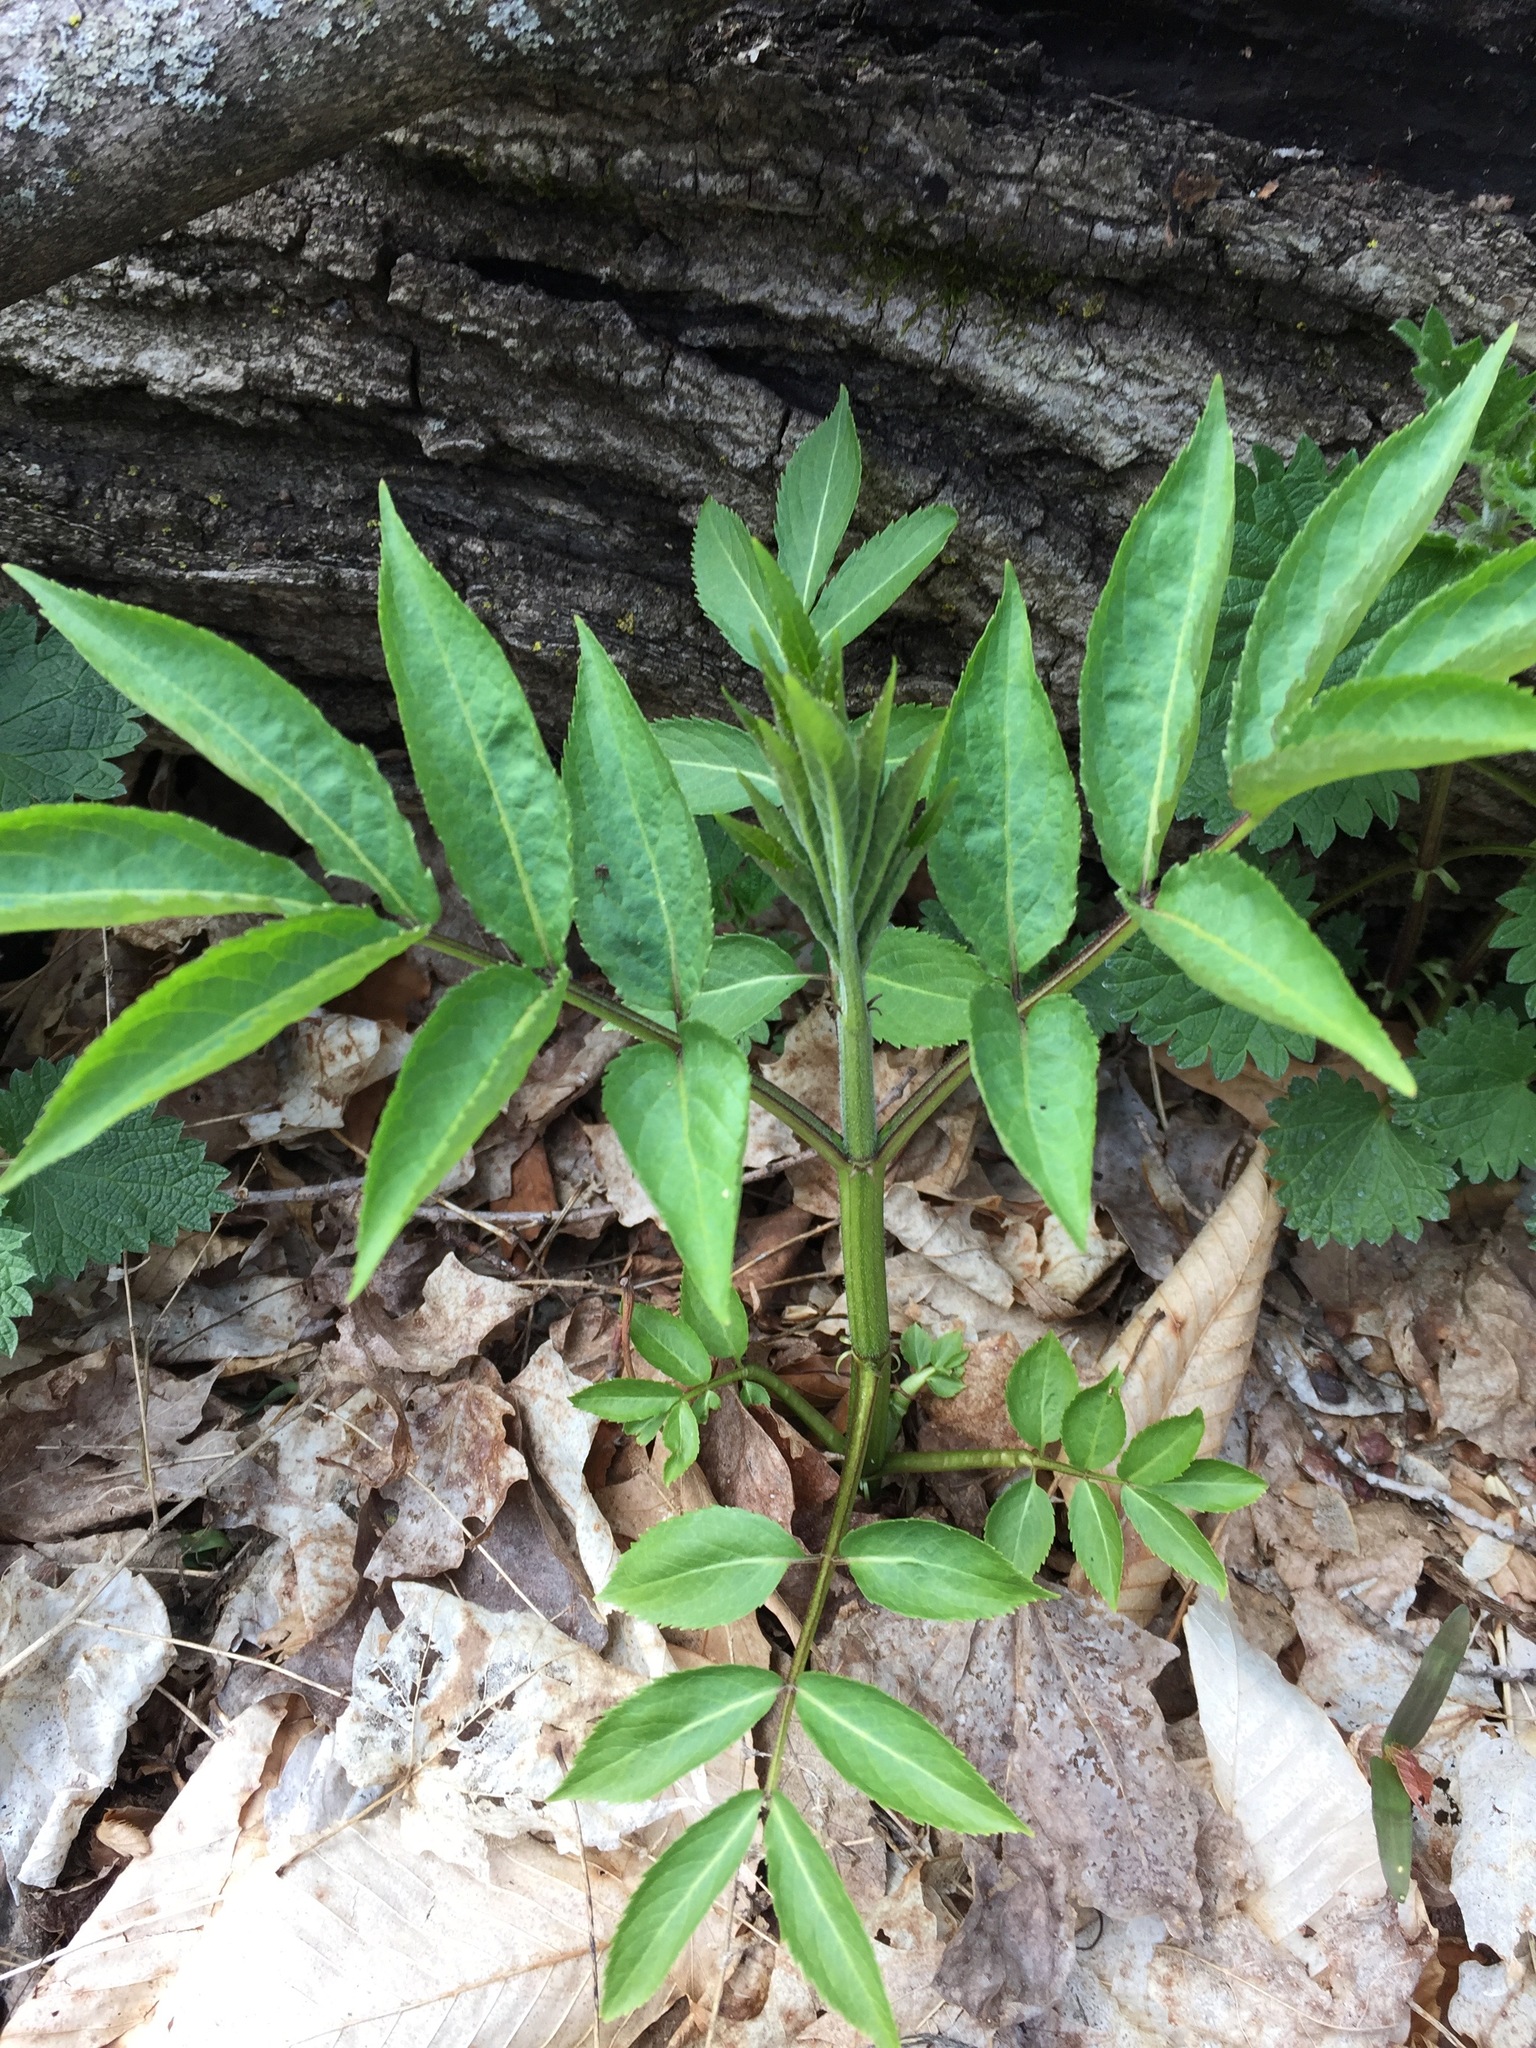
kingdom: Plantae
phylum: Tracheophyta
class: Magnoliopsida
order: Dipsacales
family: Viburnaceae
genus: Sambucus
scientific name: Sambucus racemosa
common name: Red-berried elder
